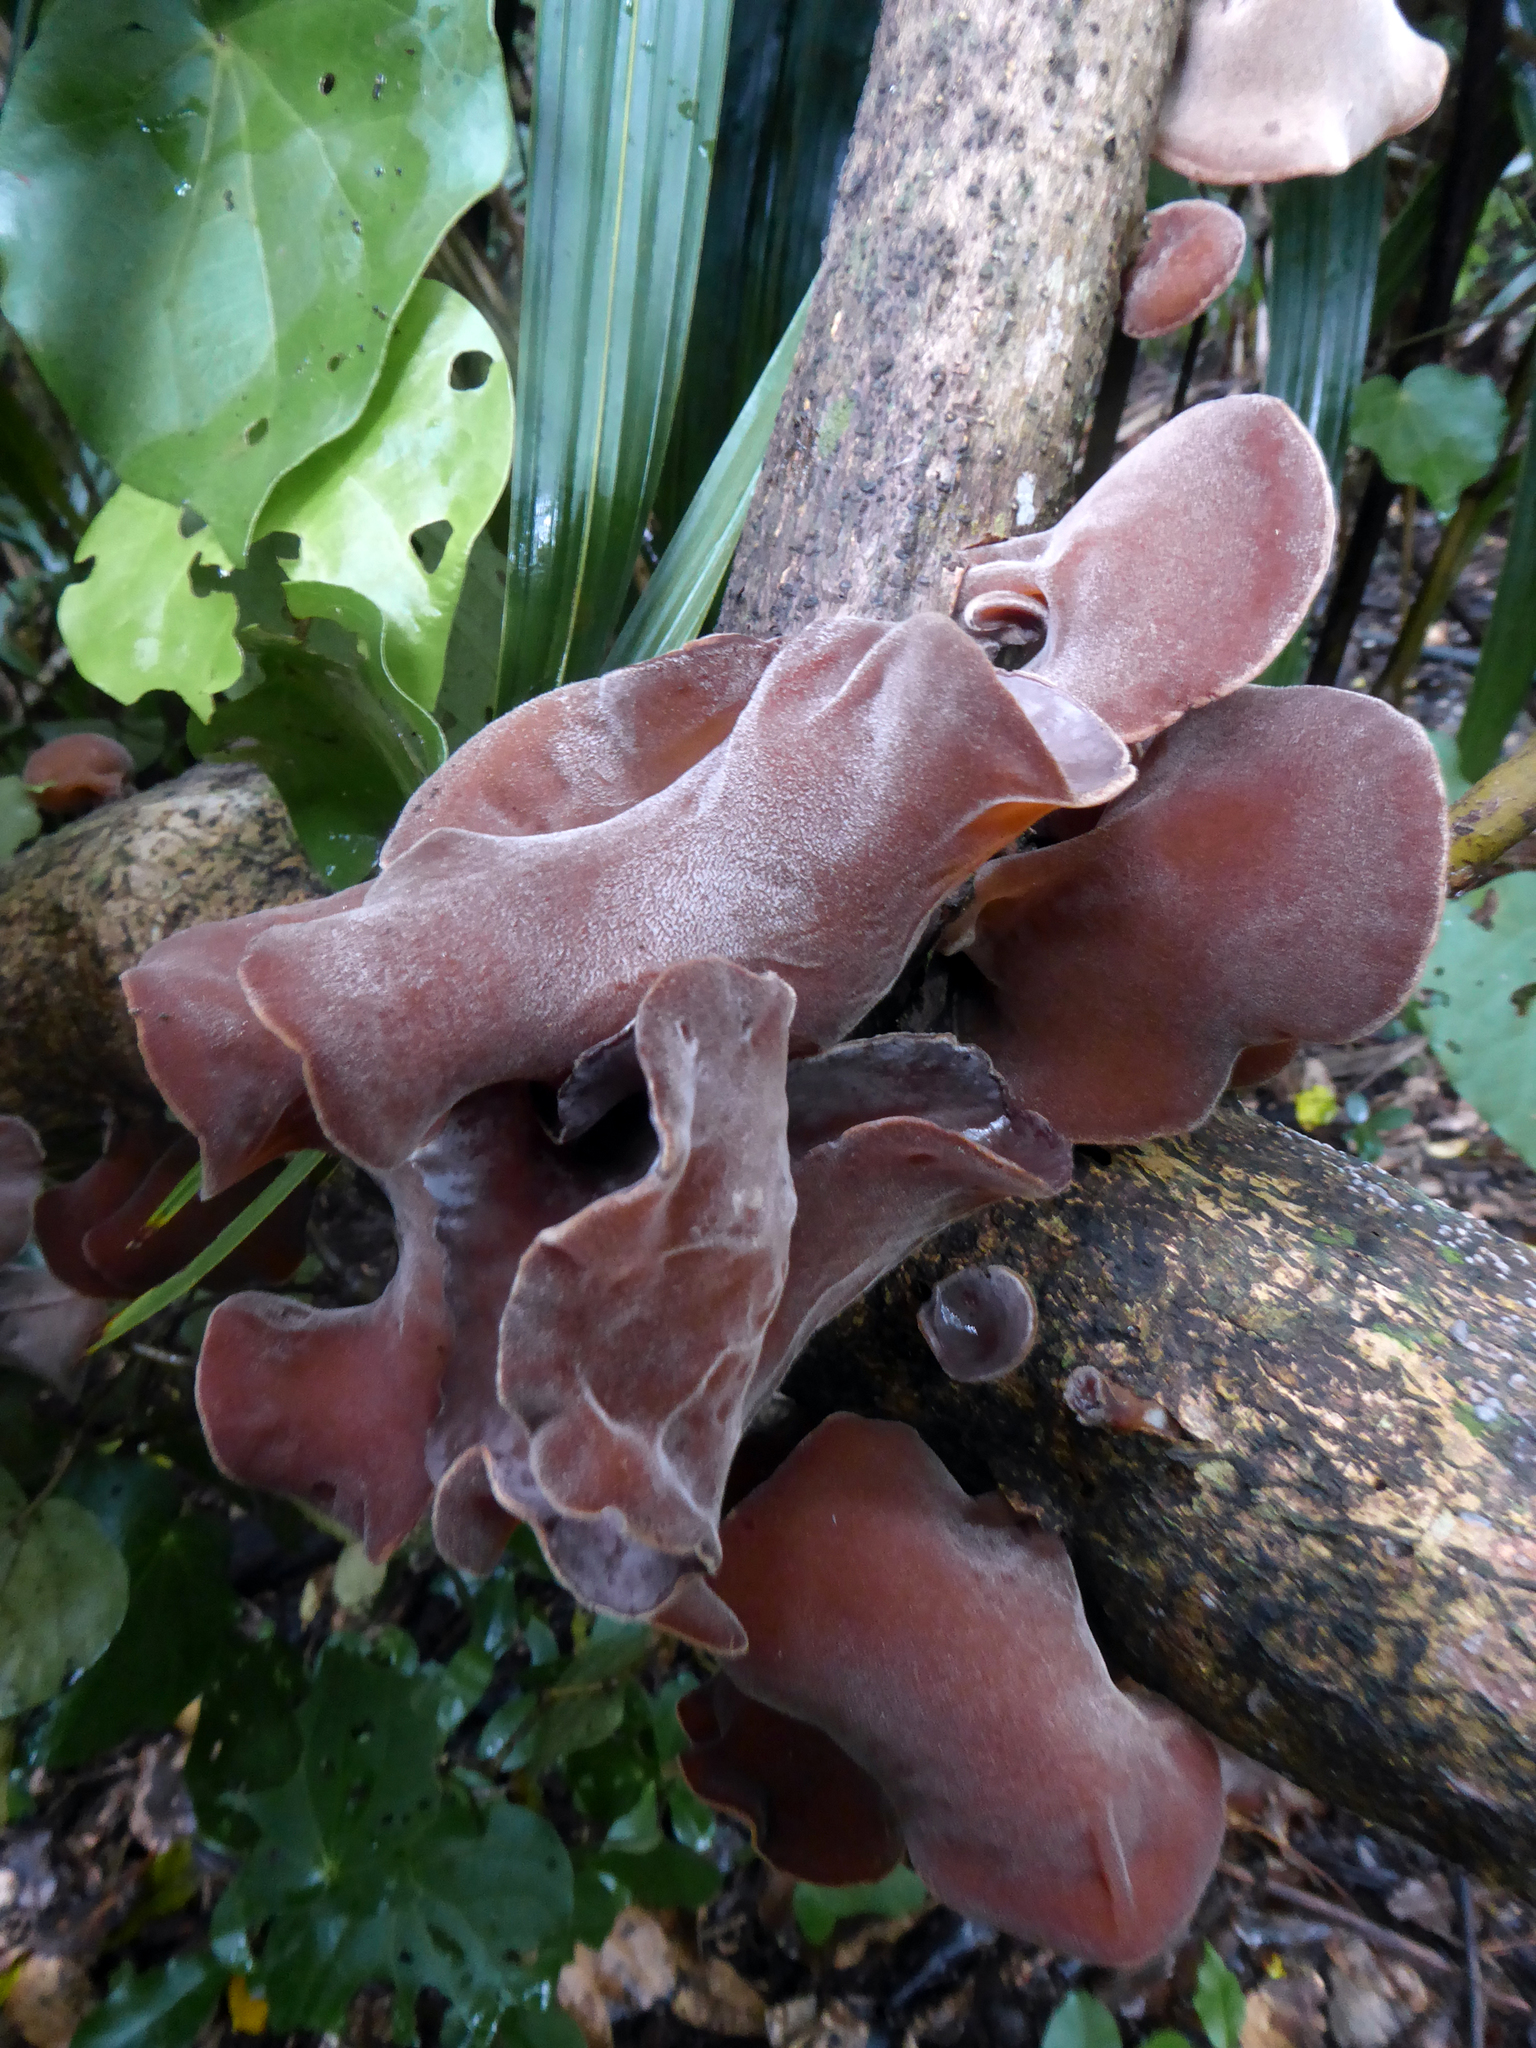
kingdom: Fungi
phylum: Basidiomycota
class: Agaricomycetes
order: Auriculariales
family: Auriculariaceae
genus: Auricularia
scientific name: Auricularia cornea
